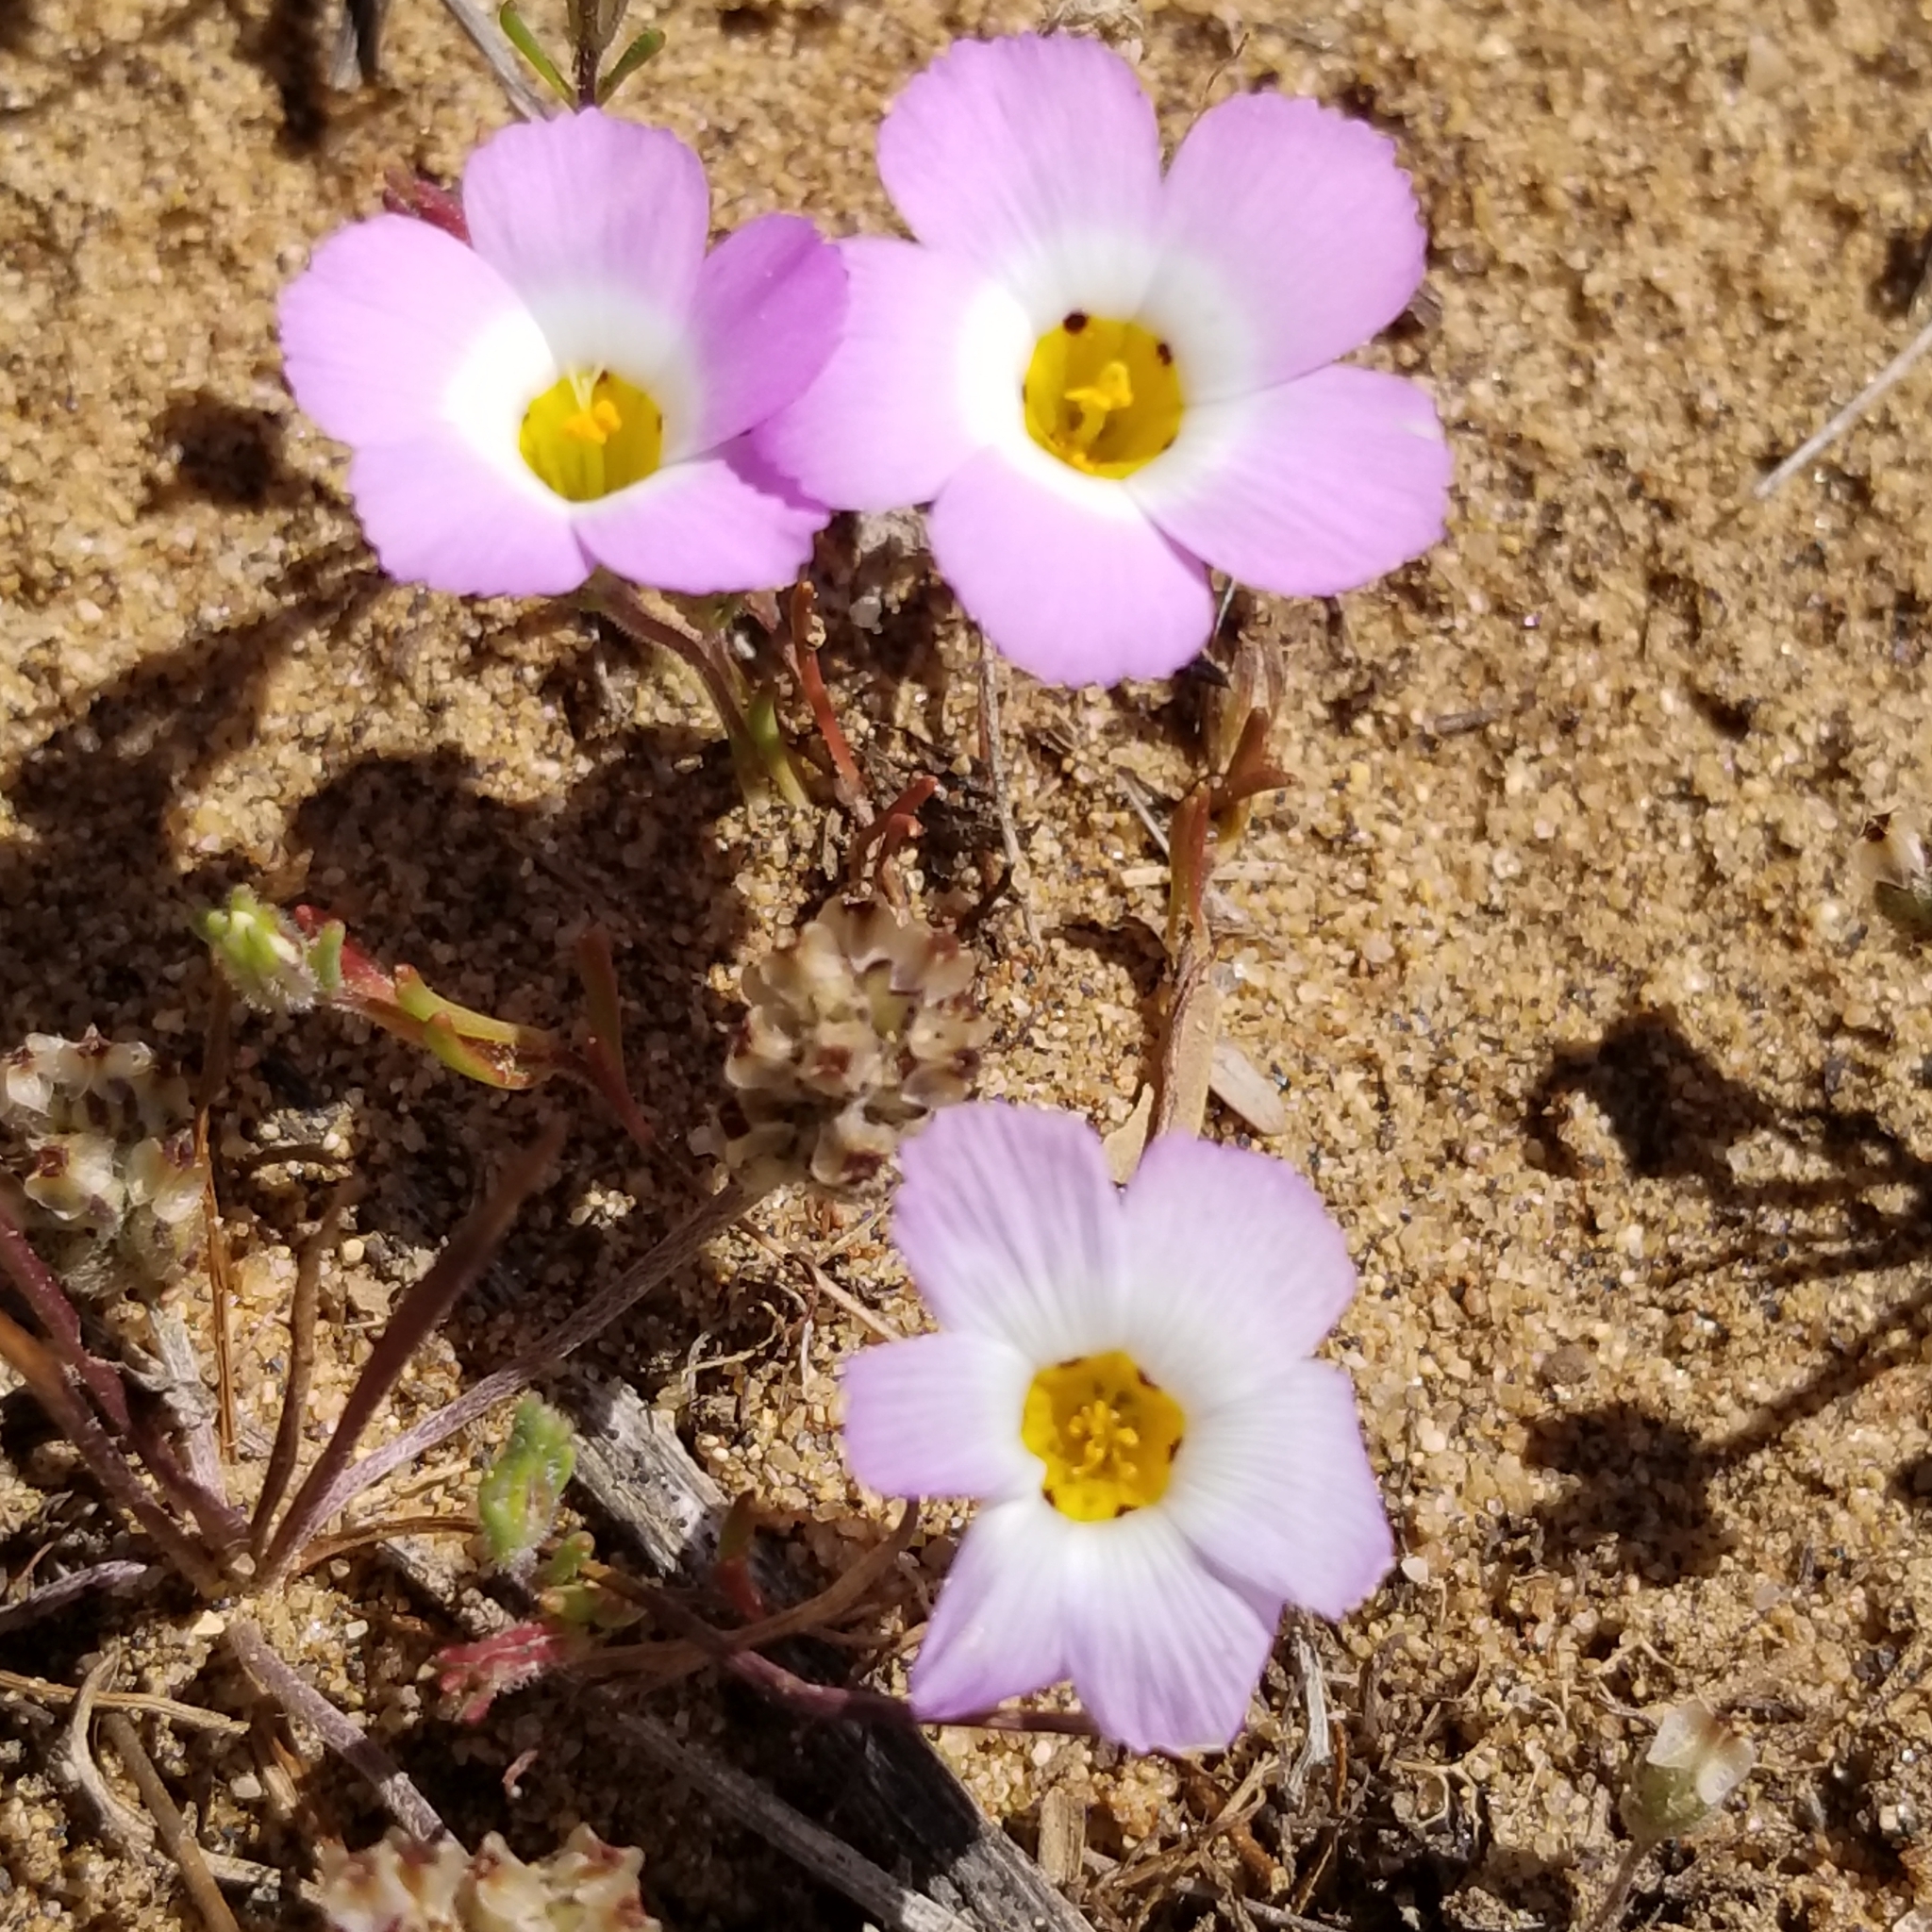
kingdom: Plantae
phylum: Tracheophyta
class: Magnoliopsida
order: Ericales
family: Polemoniaceae
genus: Linanthus
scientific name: Linanthus dianthiflorus
